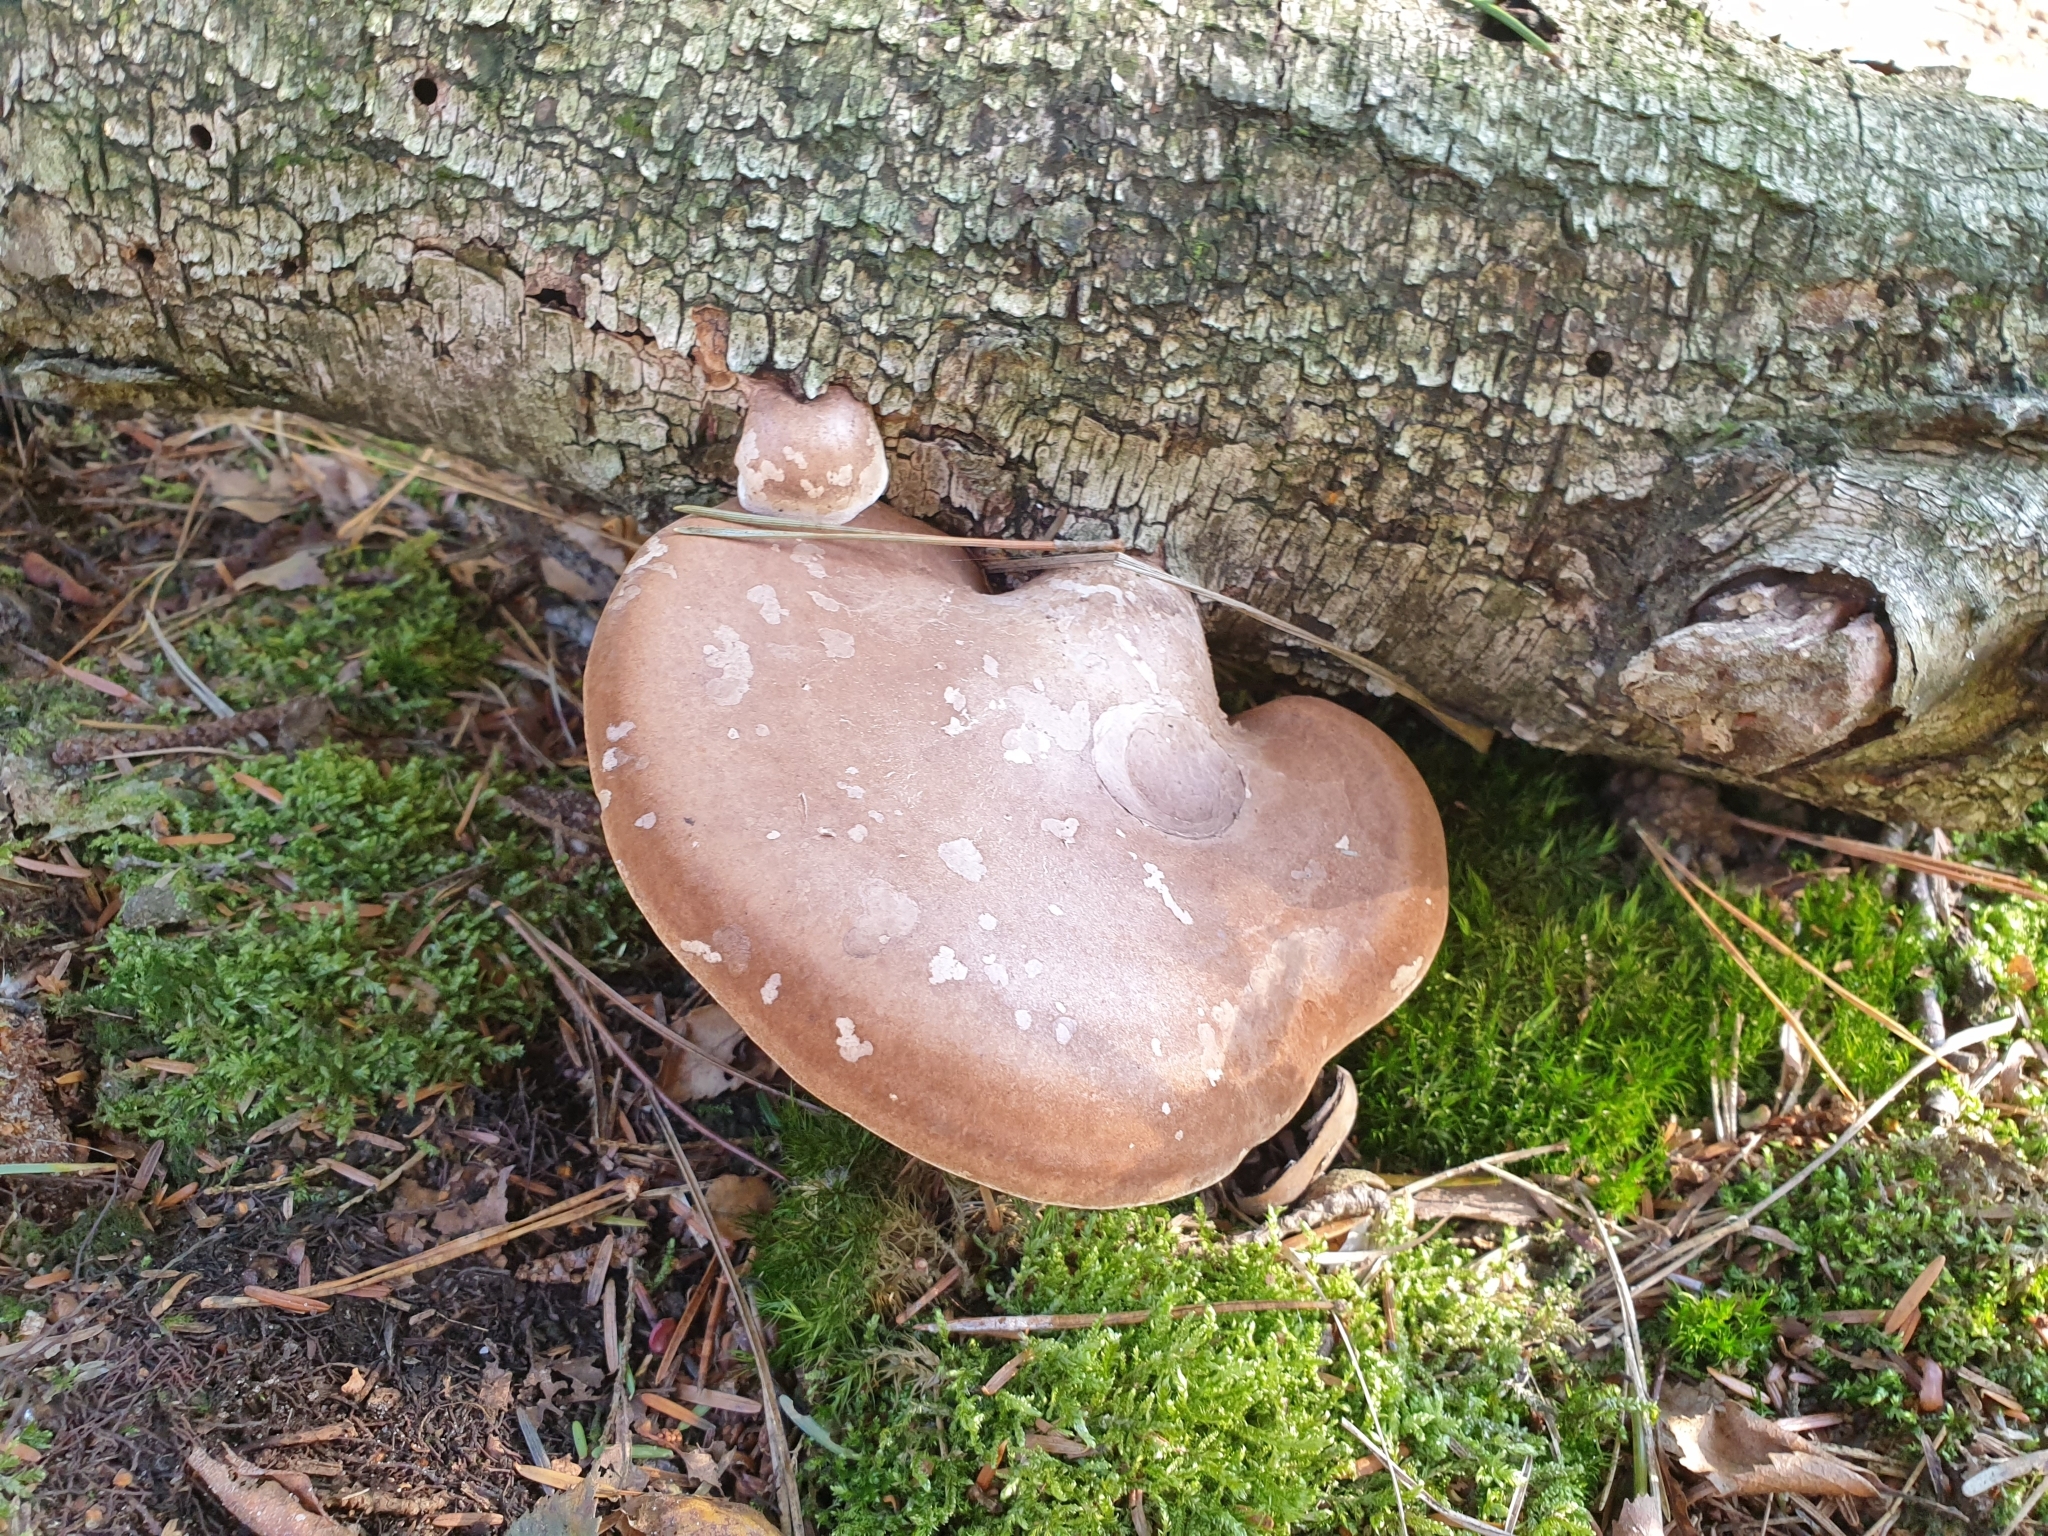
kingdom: Fungi
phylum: Basidiomycota
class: Agaricomycetes
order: Polyporales
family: Fomitopsidaceae
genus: Fomitopsis
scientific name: Fomitopsis betulina
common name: Birch polypore
